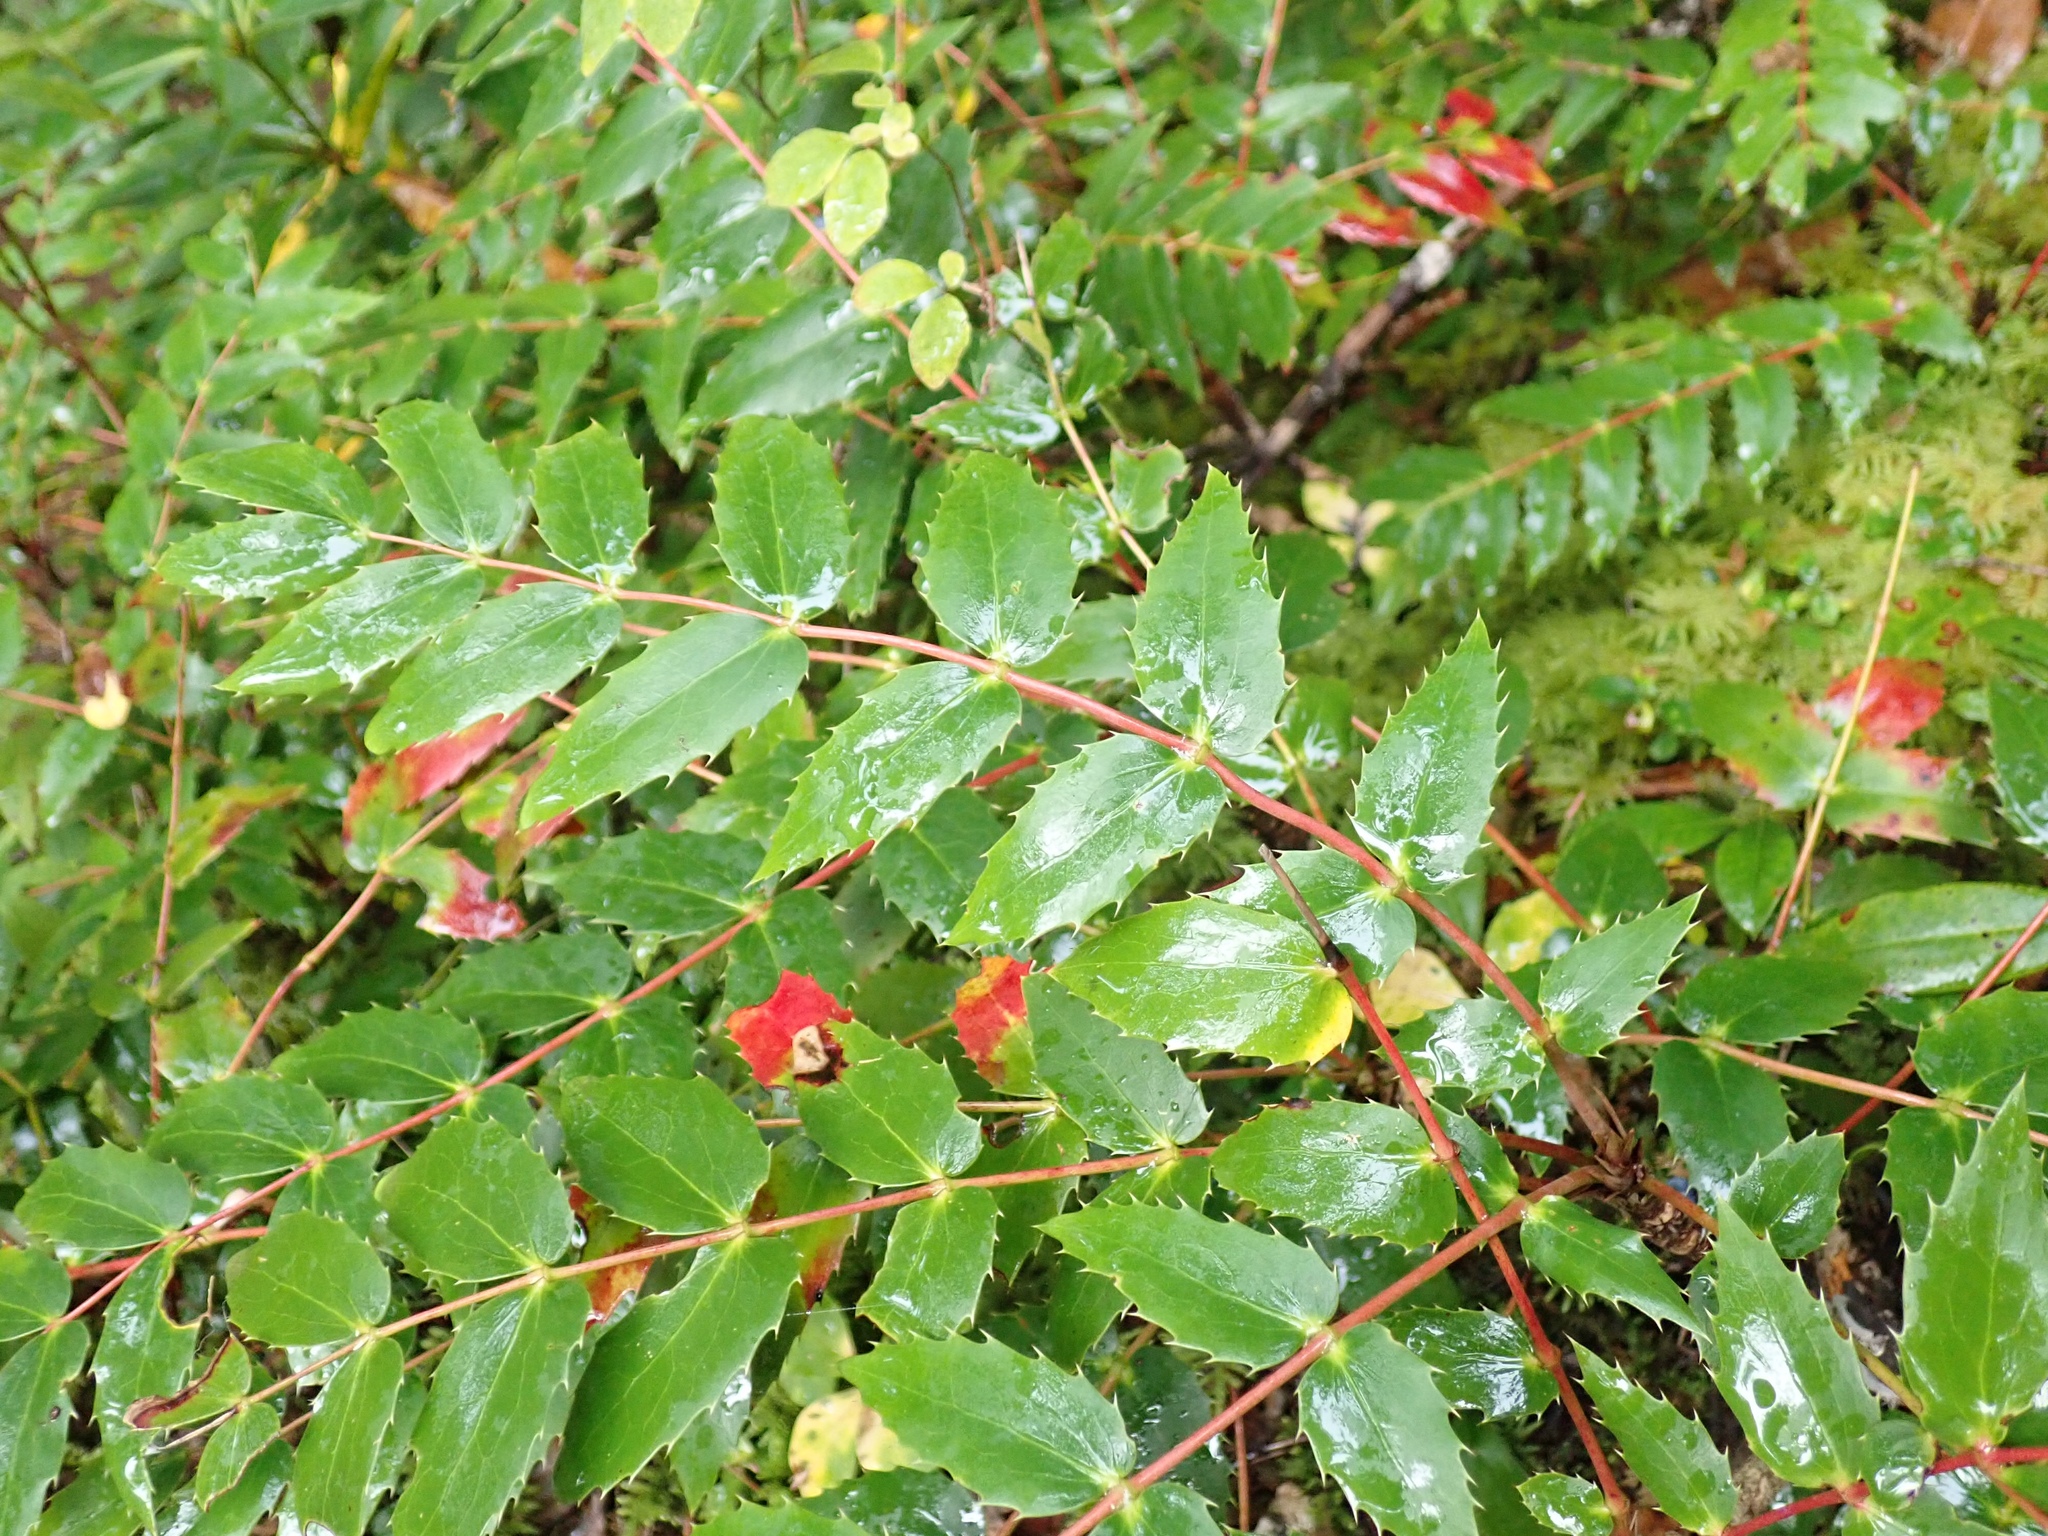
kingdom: Plantae
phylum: Tracheophyta
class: Magnoliopsida
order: Ranunculales
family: Berberidaceae
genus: Mahonia
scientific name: Mahonia nervosa
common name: Cascade oregon-grape
